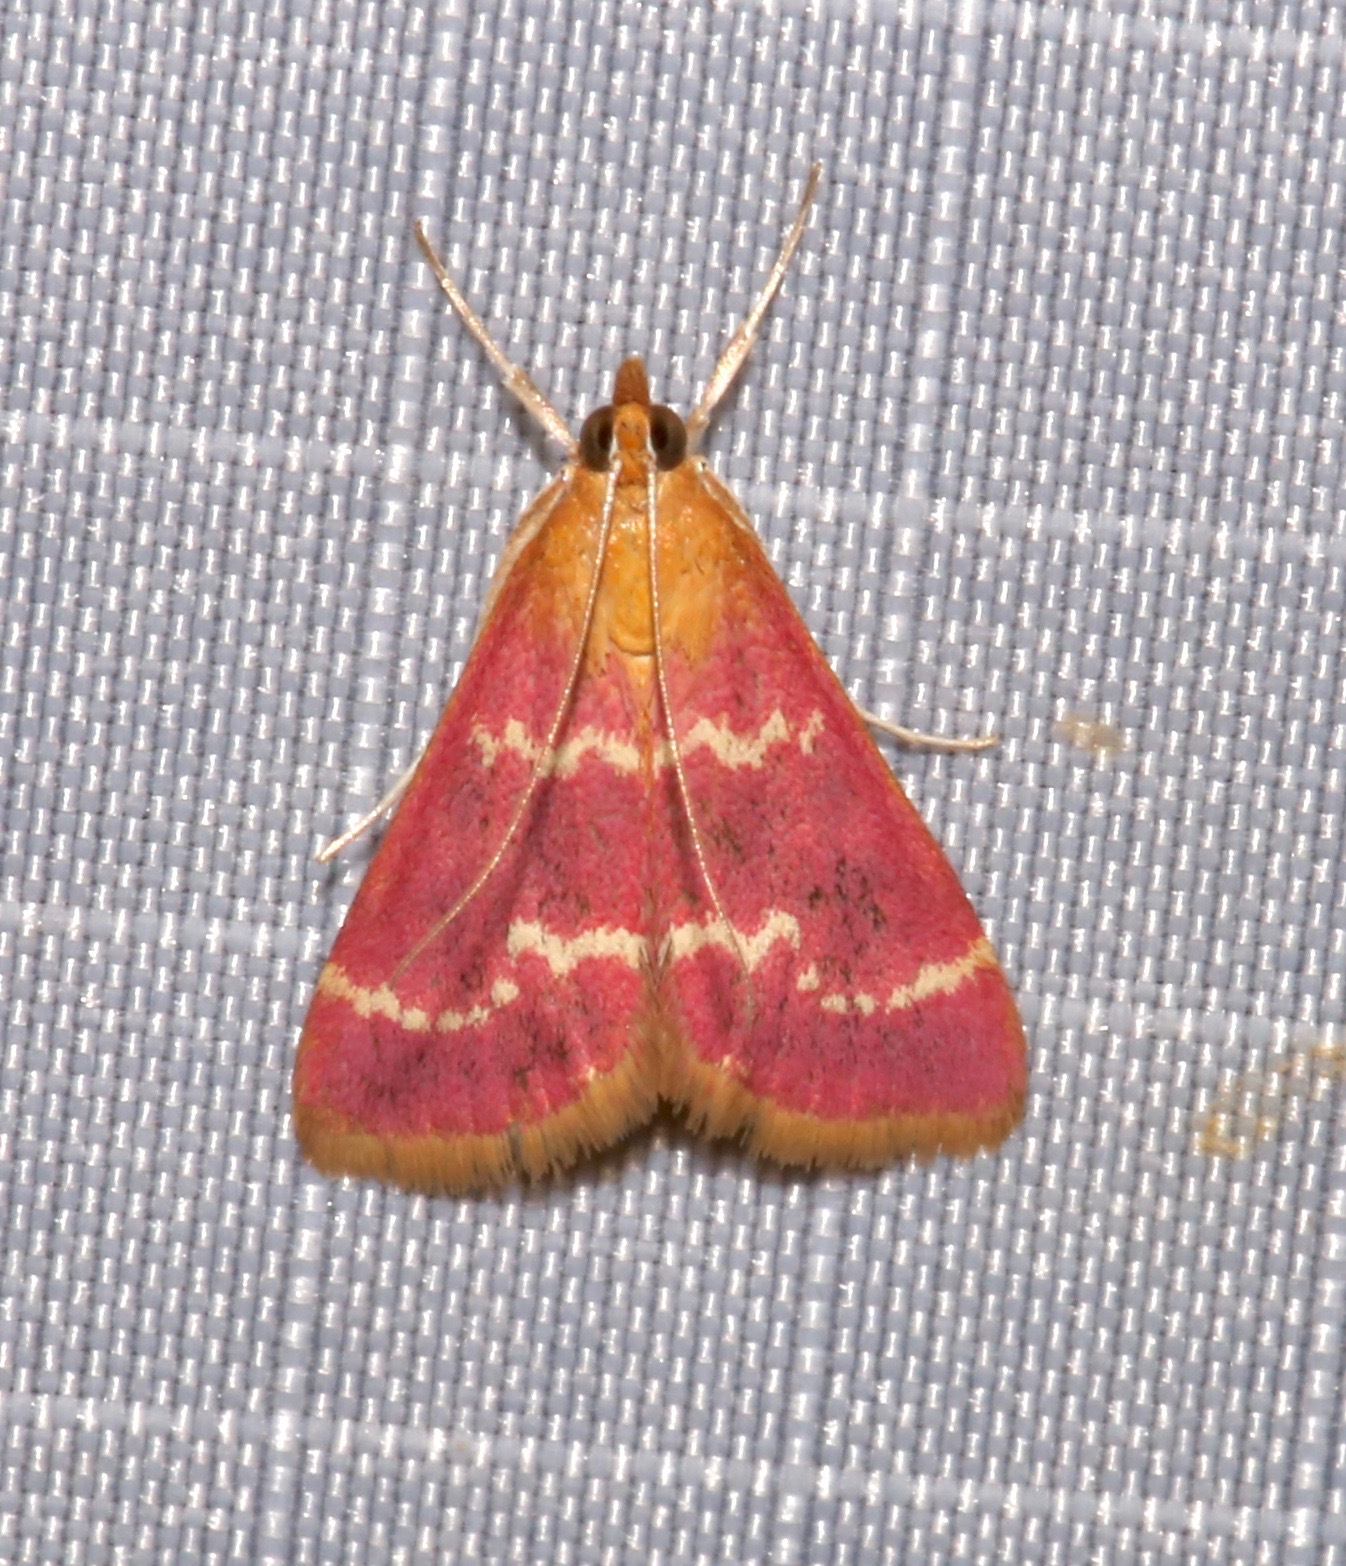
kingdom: Animalia
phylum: Arthropoda
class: Insecta
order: Lepidoptera
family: Crambidae
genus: Pyrausta
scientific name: Pyrausta signatalis
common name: Raspberry pyrausta moth
